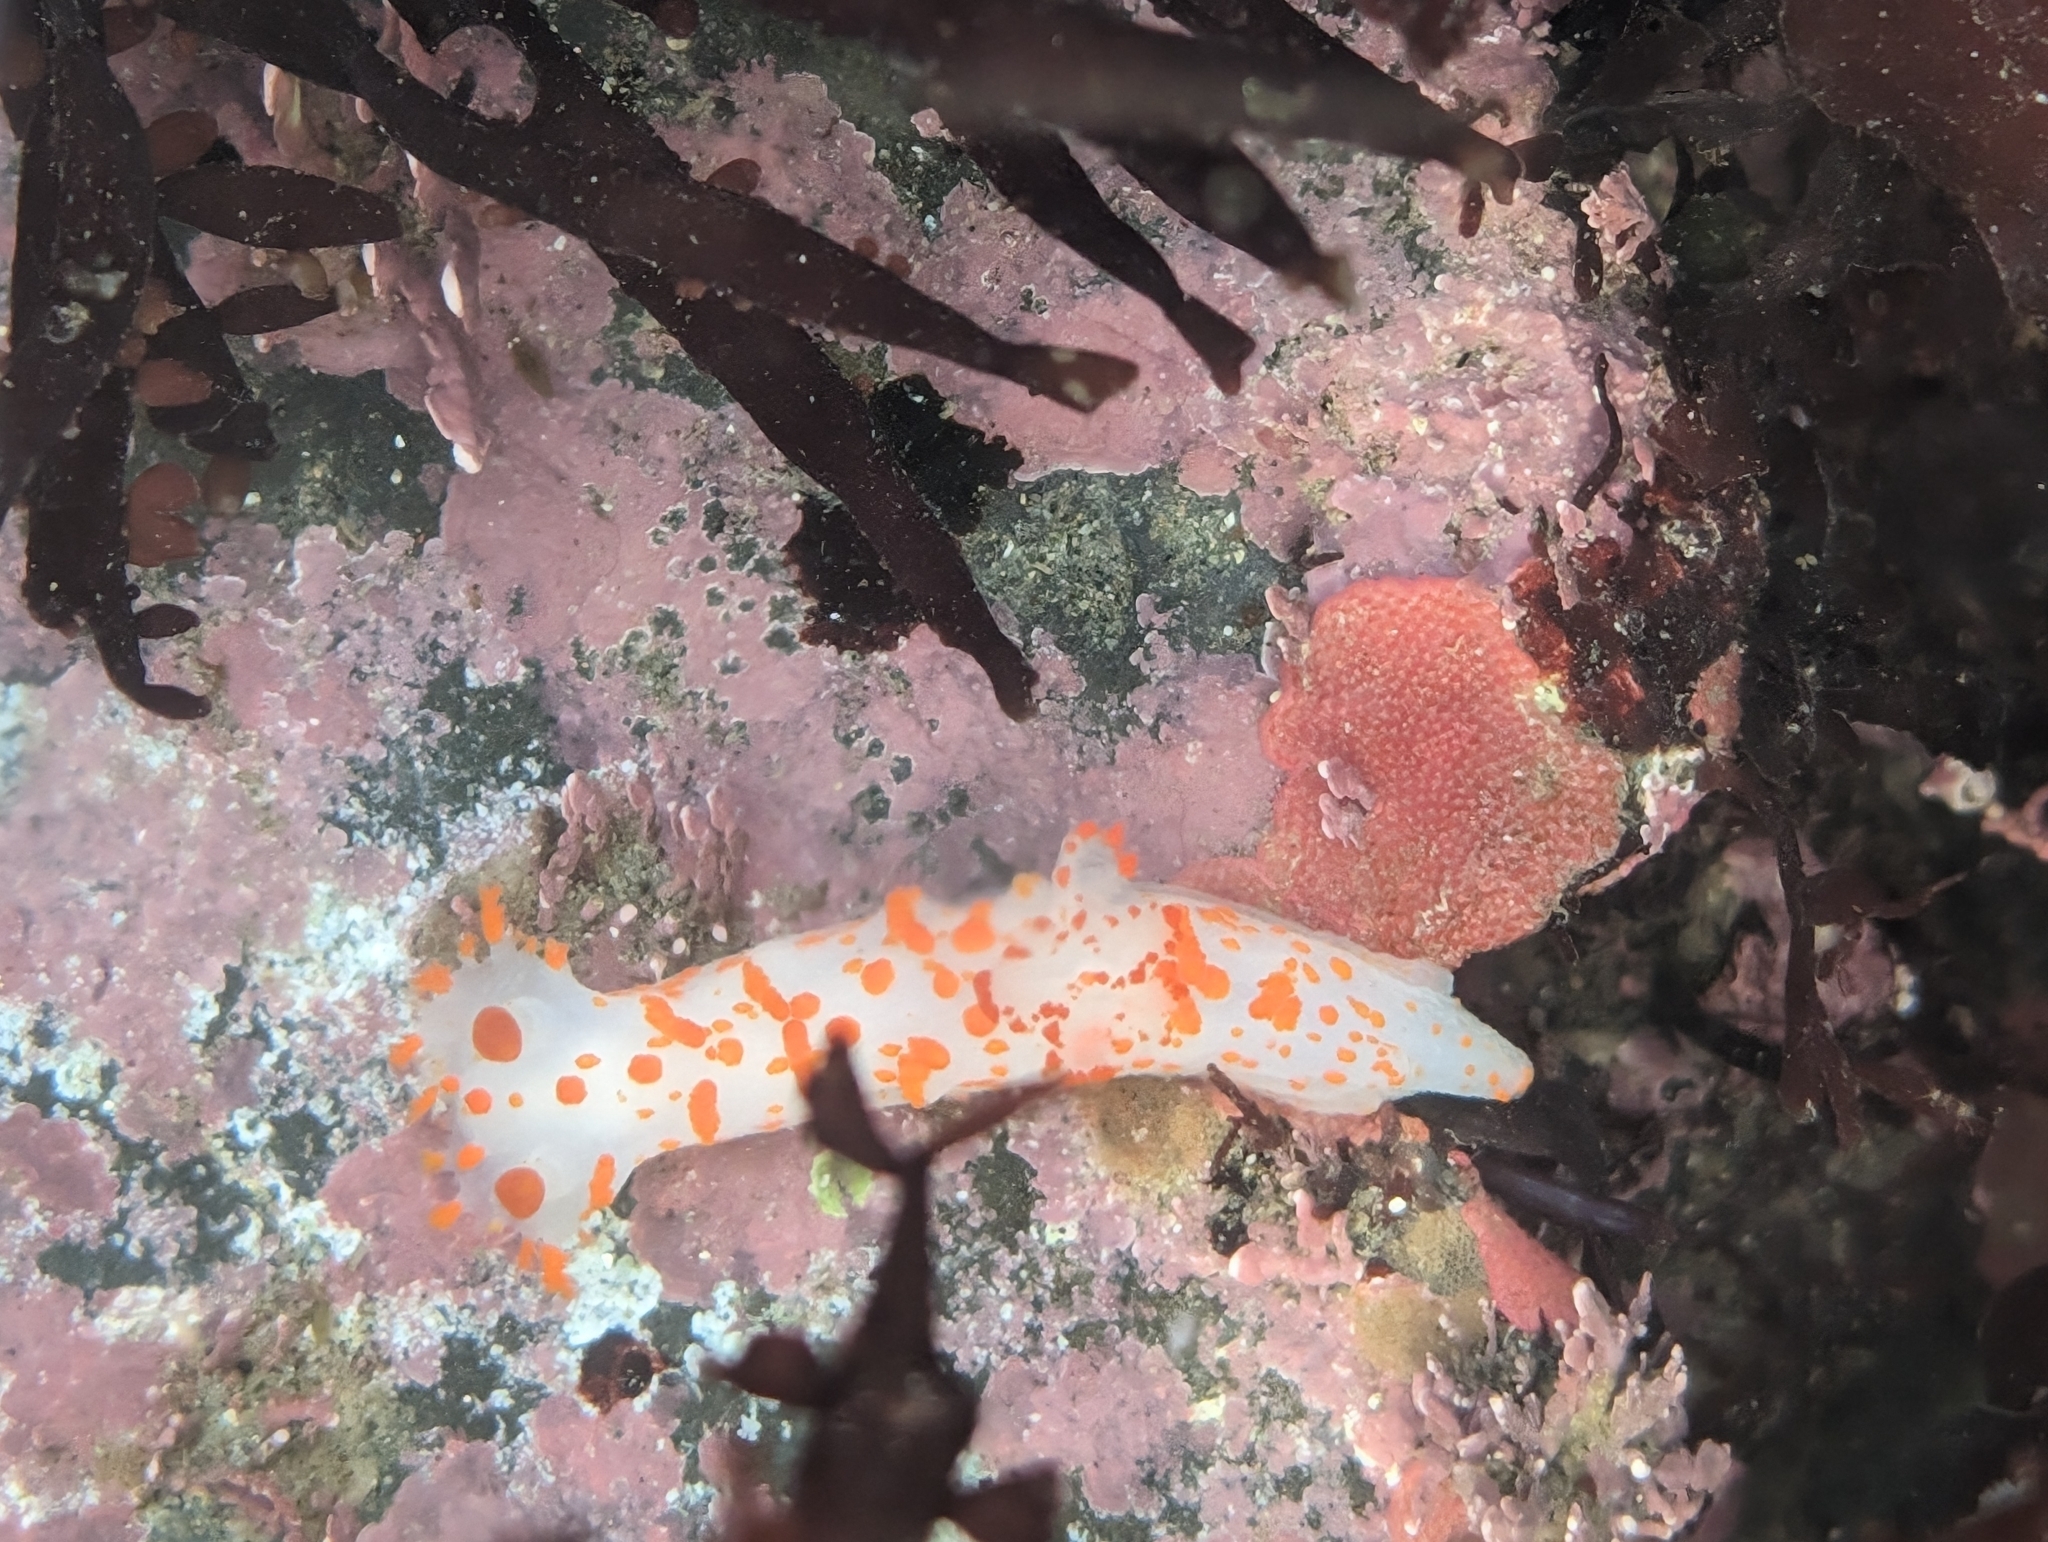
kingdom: Animalia
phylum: Mollusca
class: Gastropoda
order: Nudibranchia
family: Polyceridae
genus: Triopha
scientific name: Triopha catalinae
